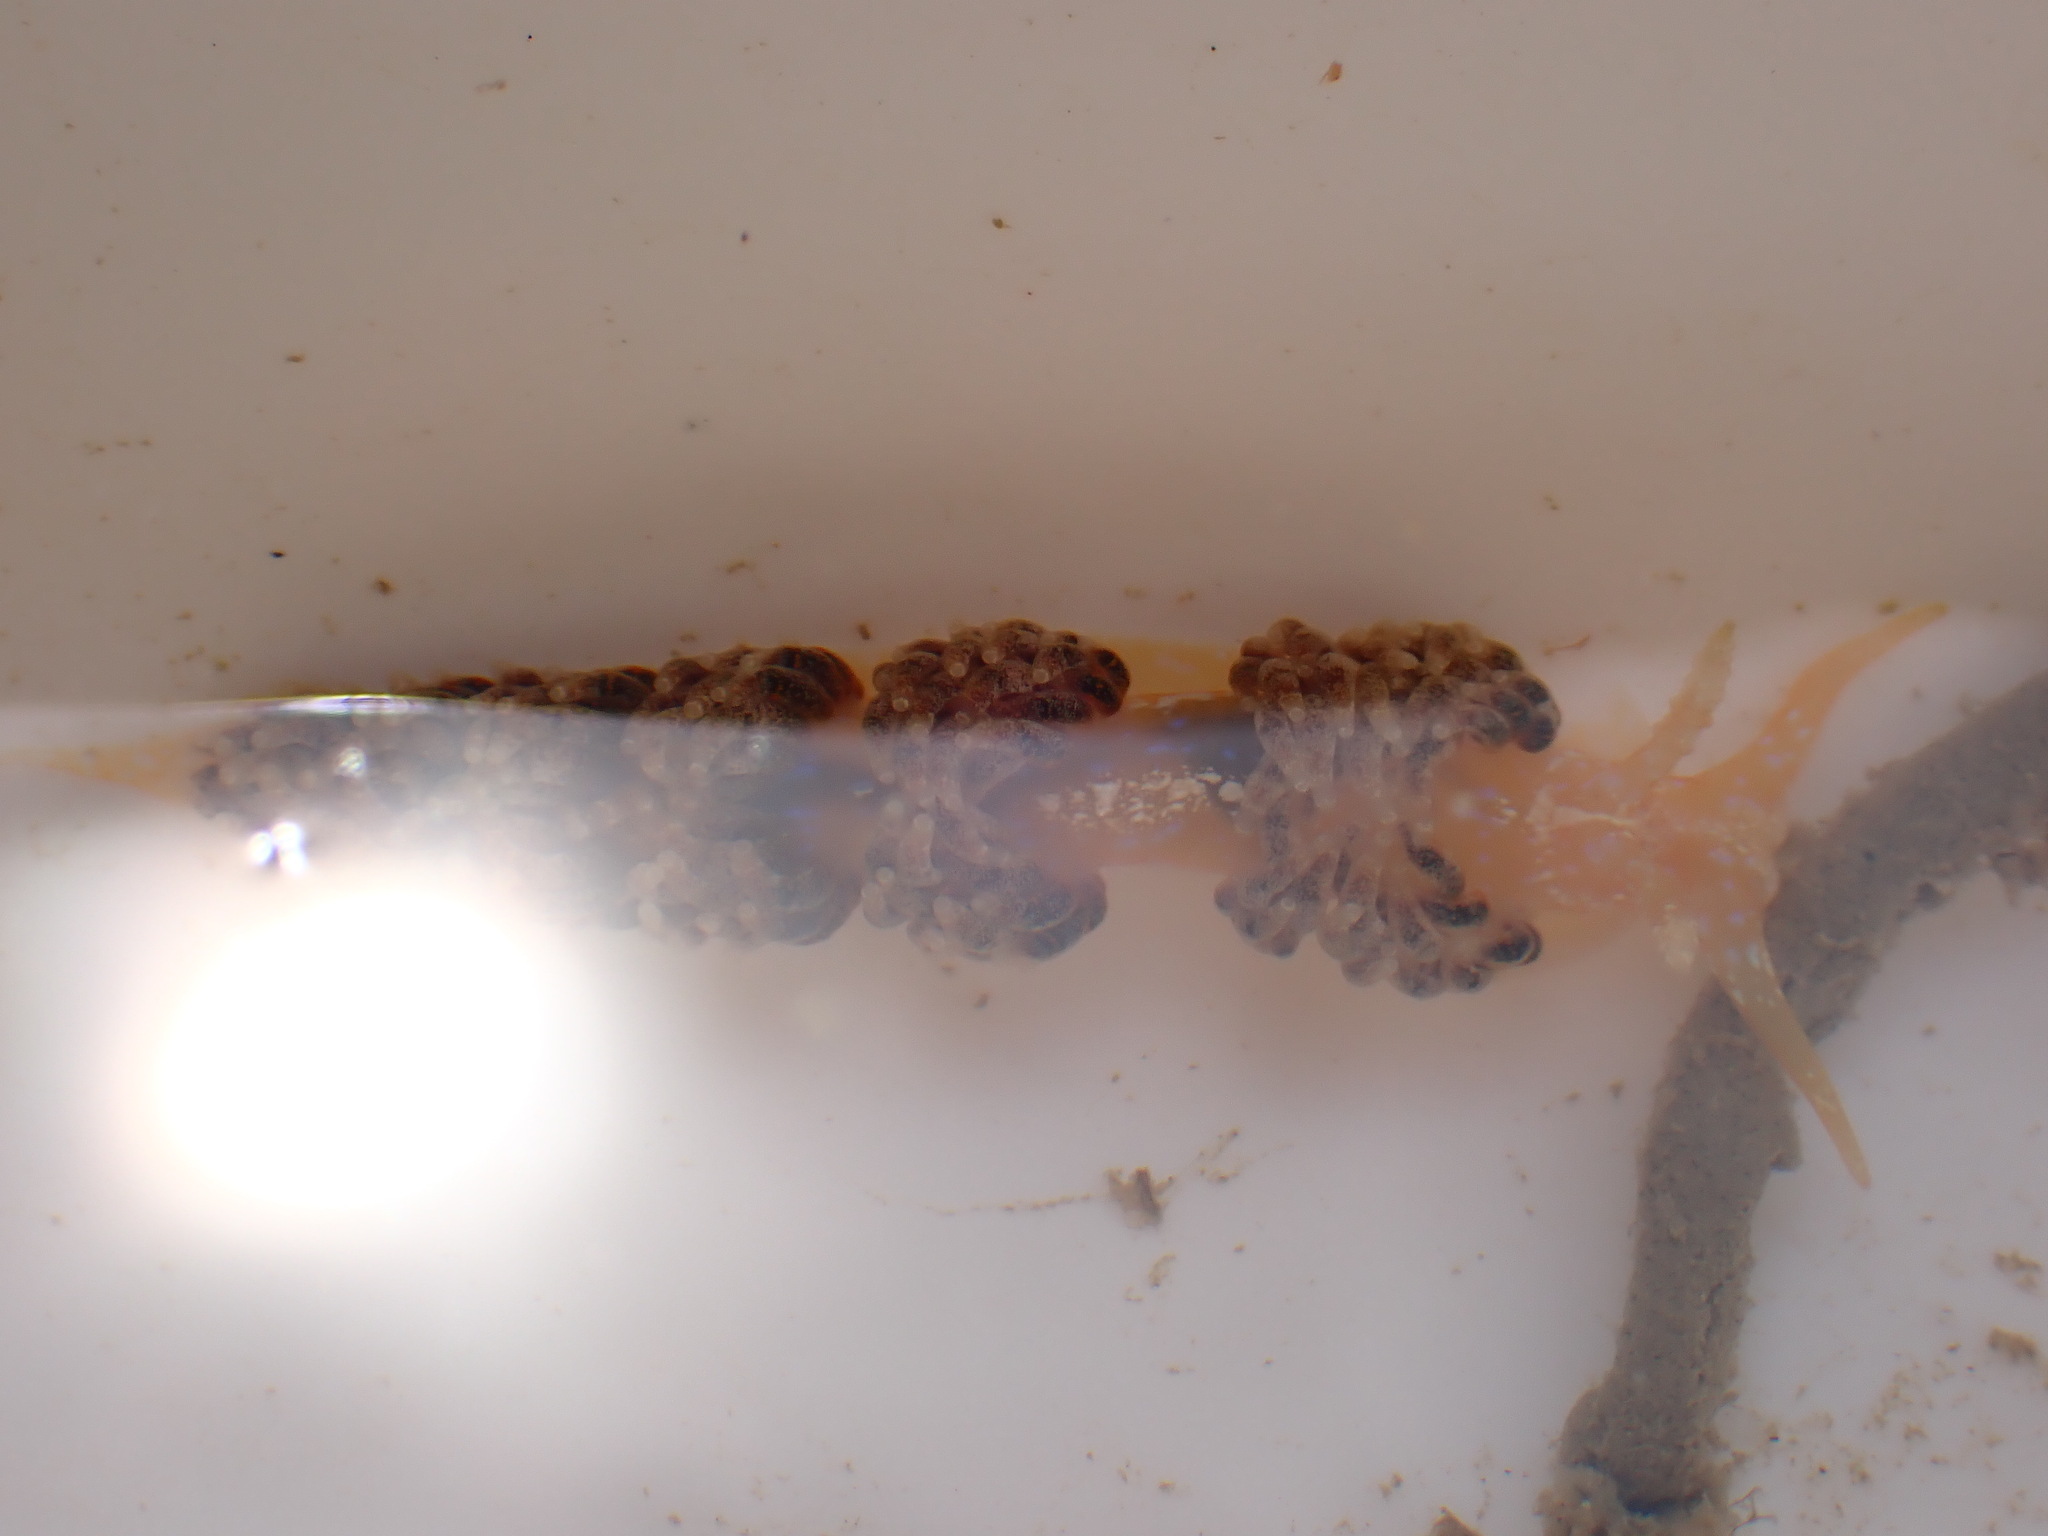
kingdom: Animalia
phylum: Mollusca
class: Gastropoda
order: Nudibranchia
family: Facelinidae
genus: Austraeolis
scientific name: Austraeolis ornata
